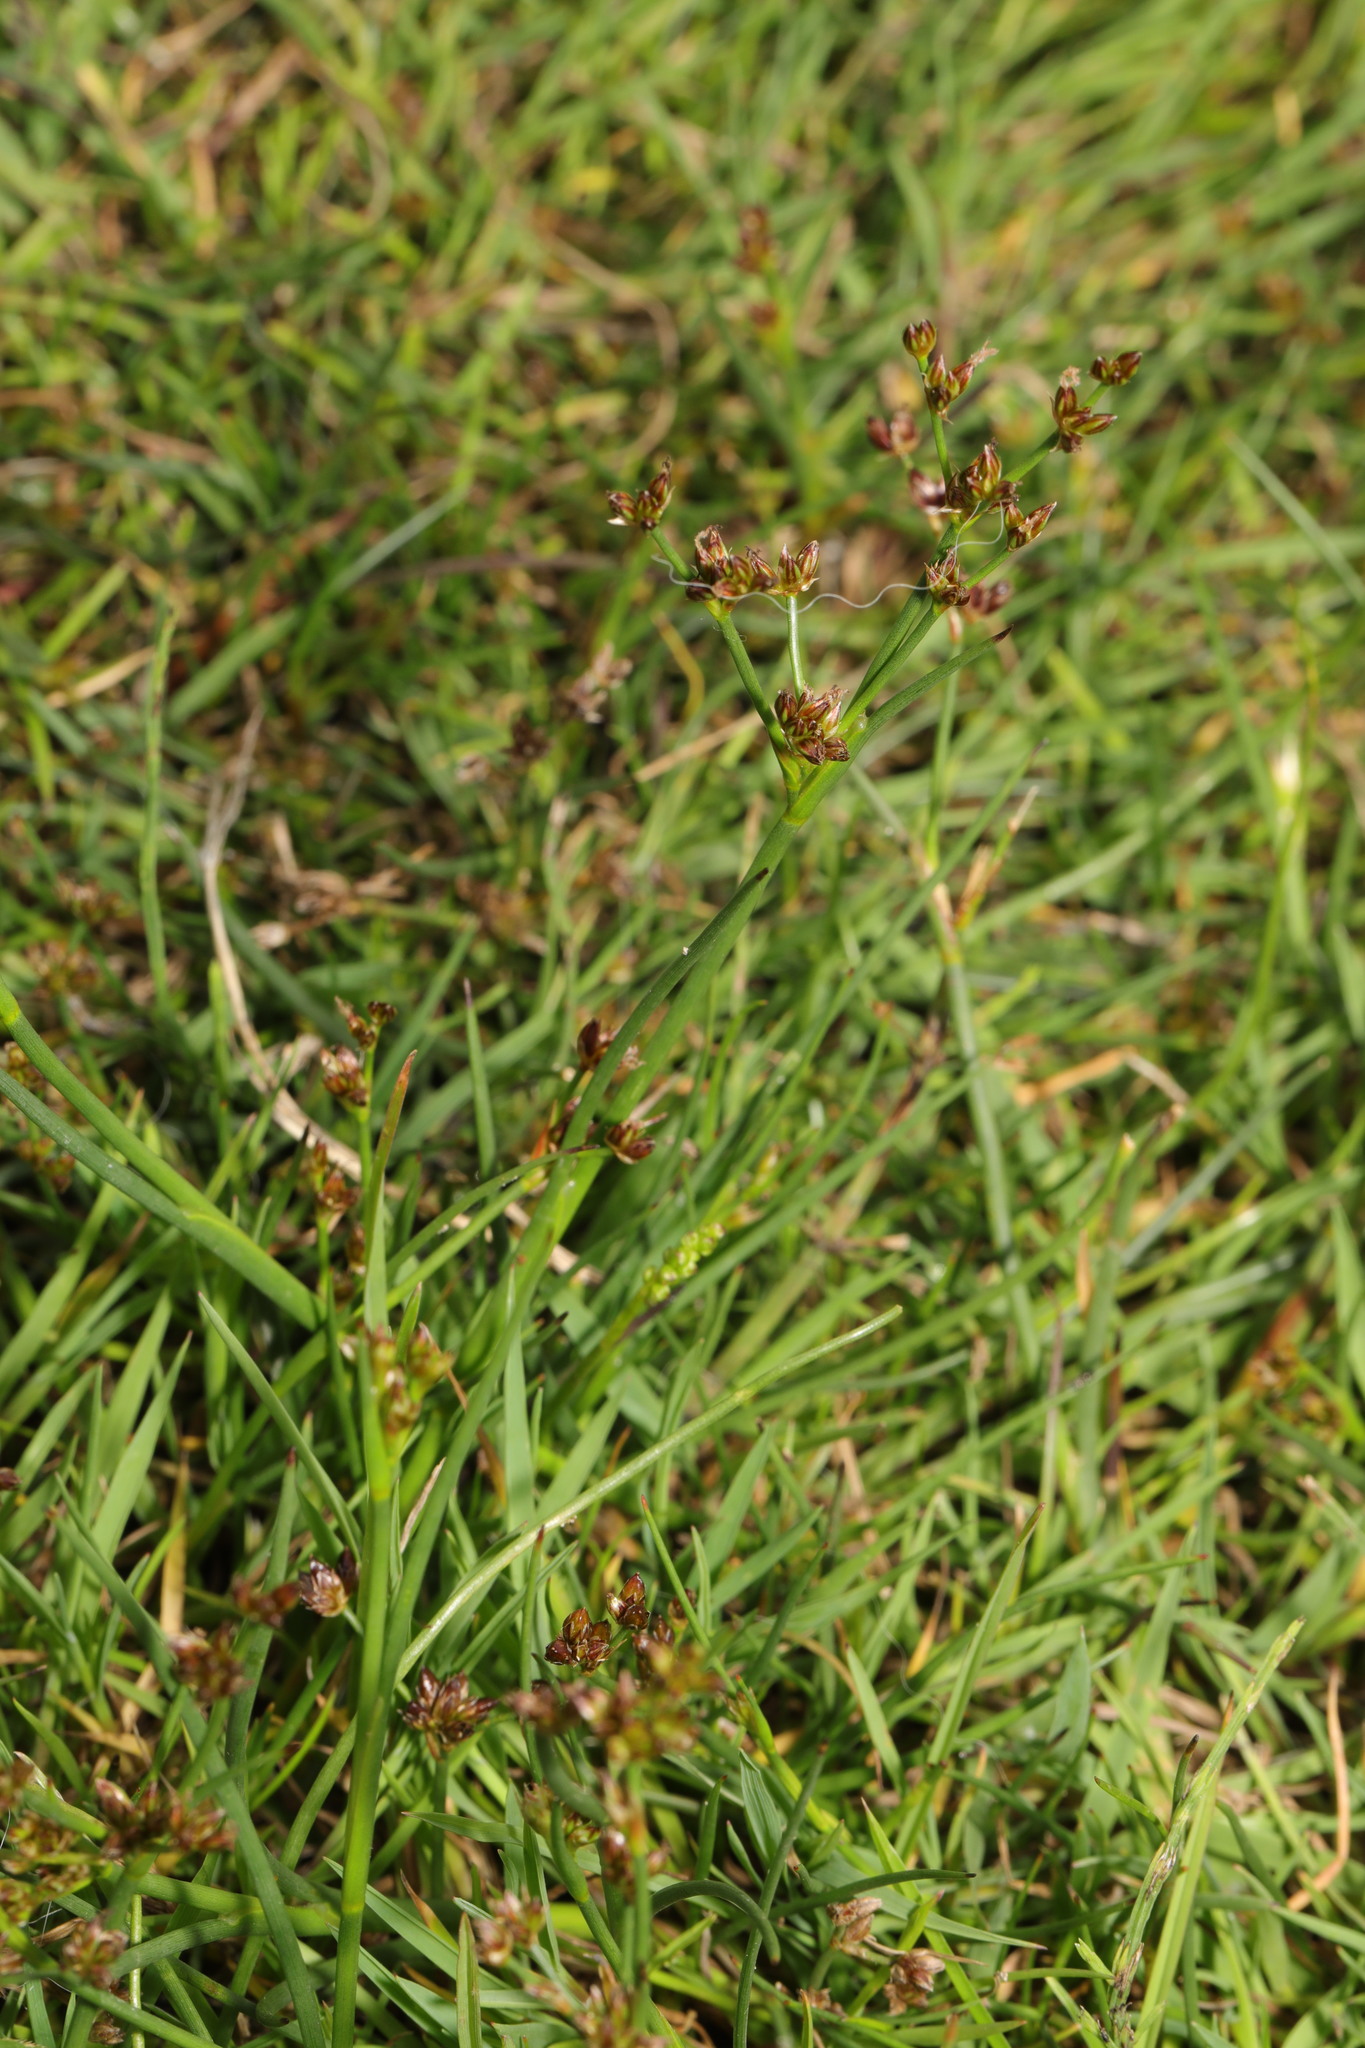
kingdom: Plantae
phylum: Tracheophyta
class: Liliopsida
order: Poales
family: Juncaceae
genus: Juncus
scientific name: Juncus articulatus
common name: Jointed rush
